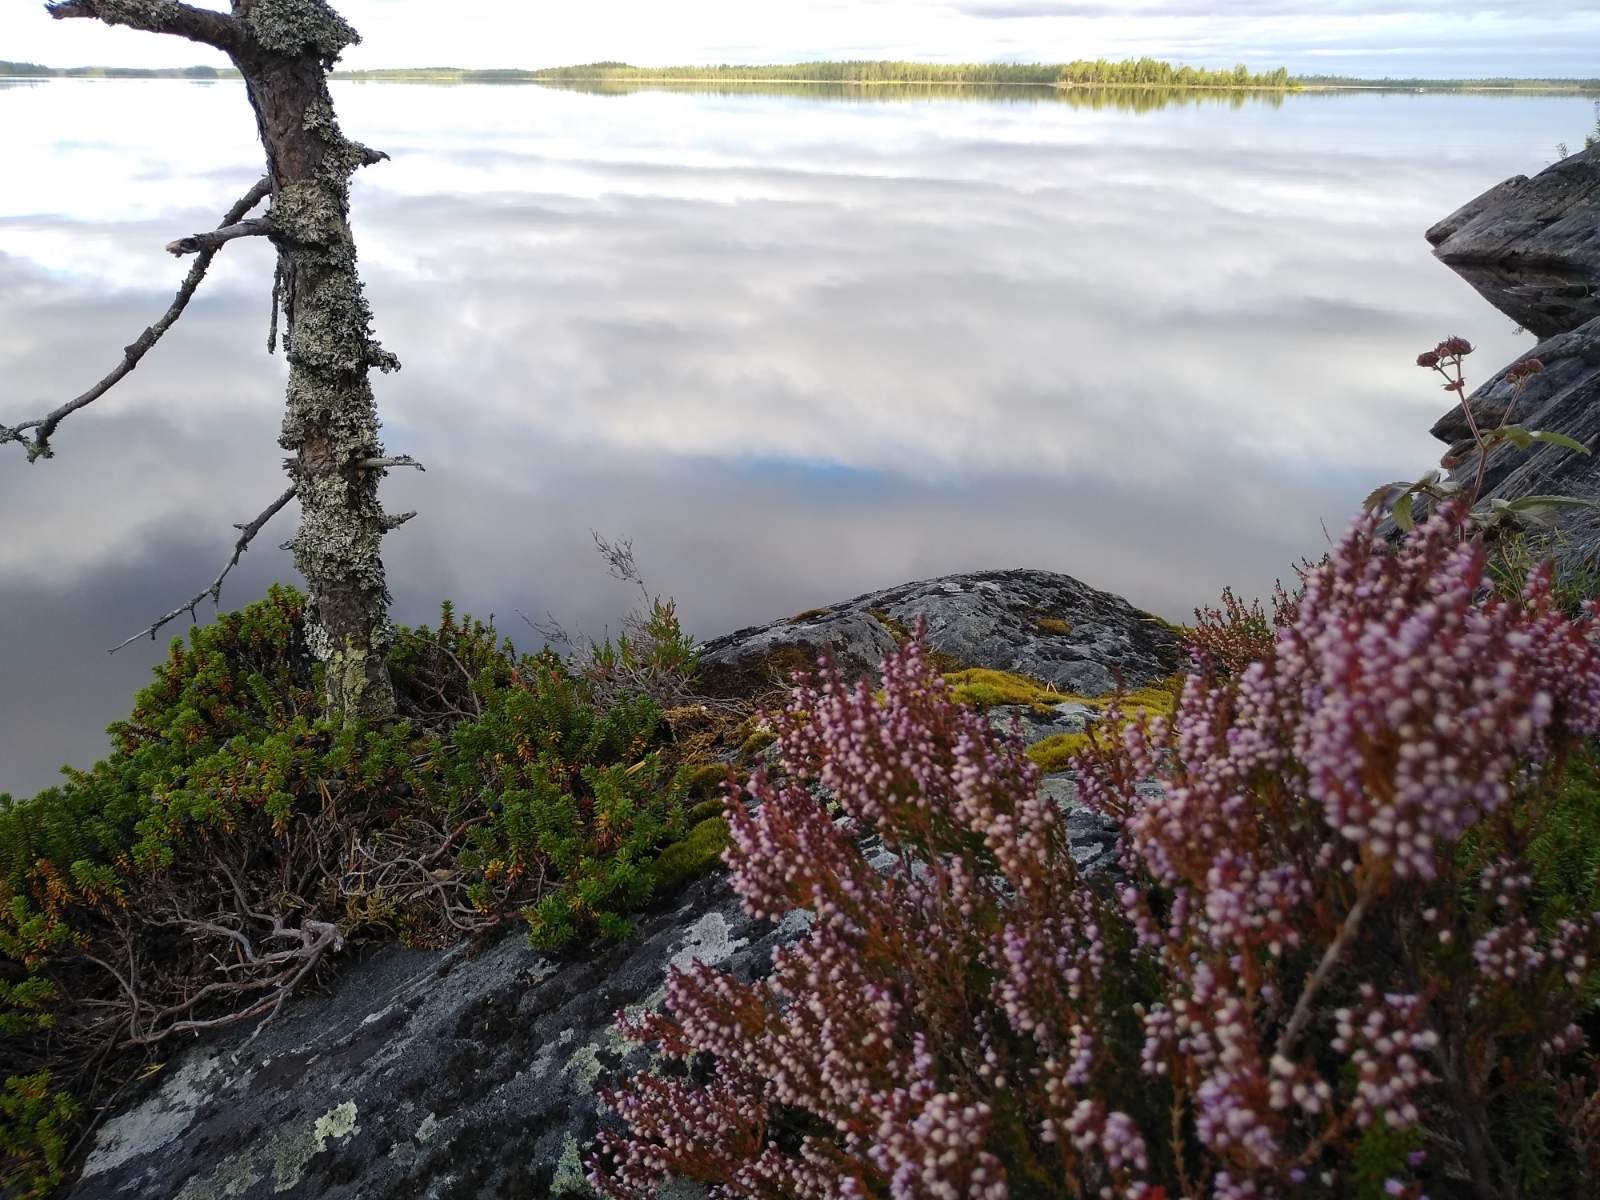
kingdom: Plantae
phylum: Tracheophyta
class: Magnoliopsida
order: Ericales
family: Ericaceae
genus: Calluna
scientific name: Calluna vulgaris
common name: Heather
